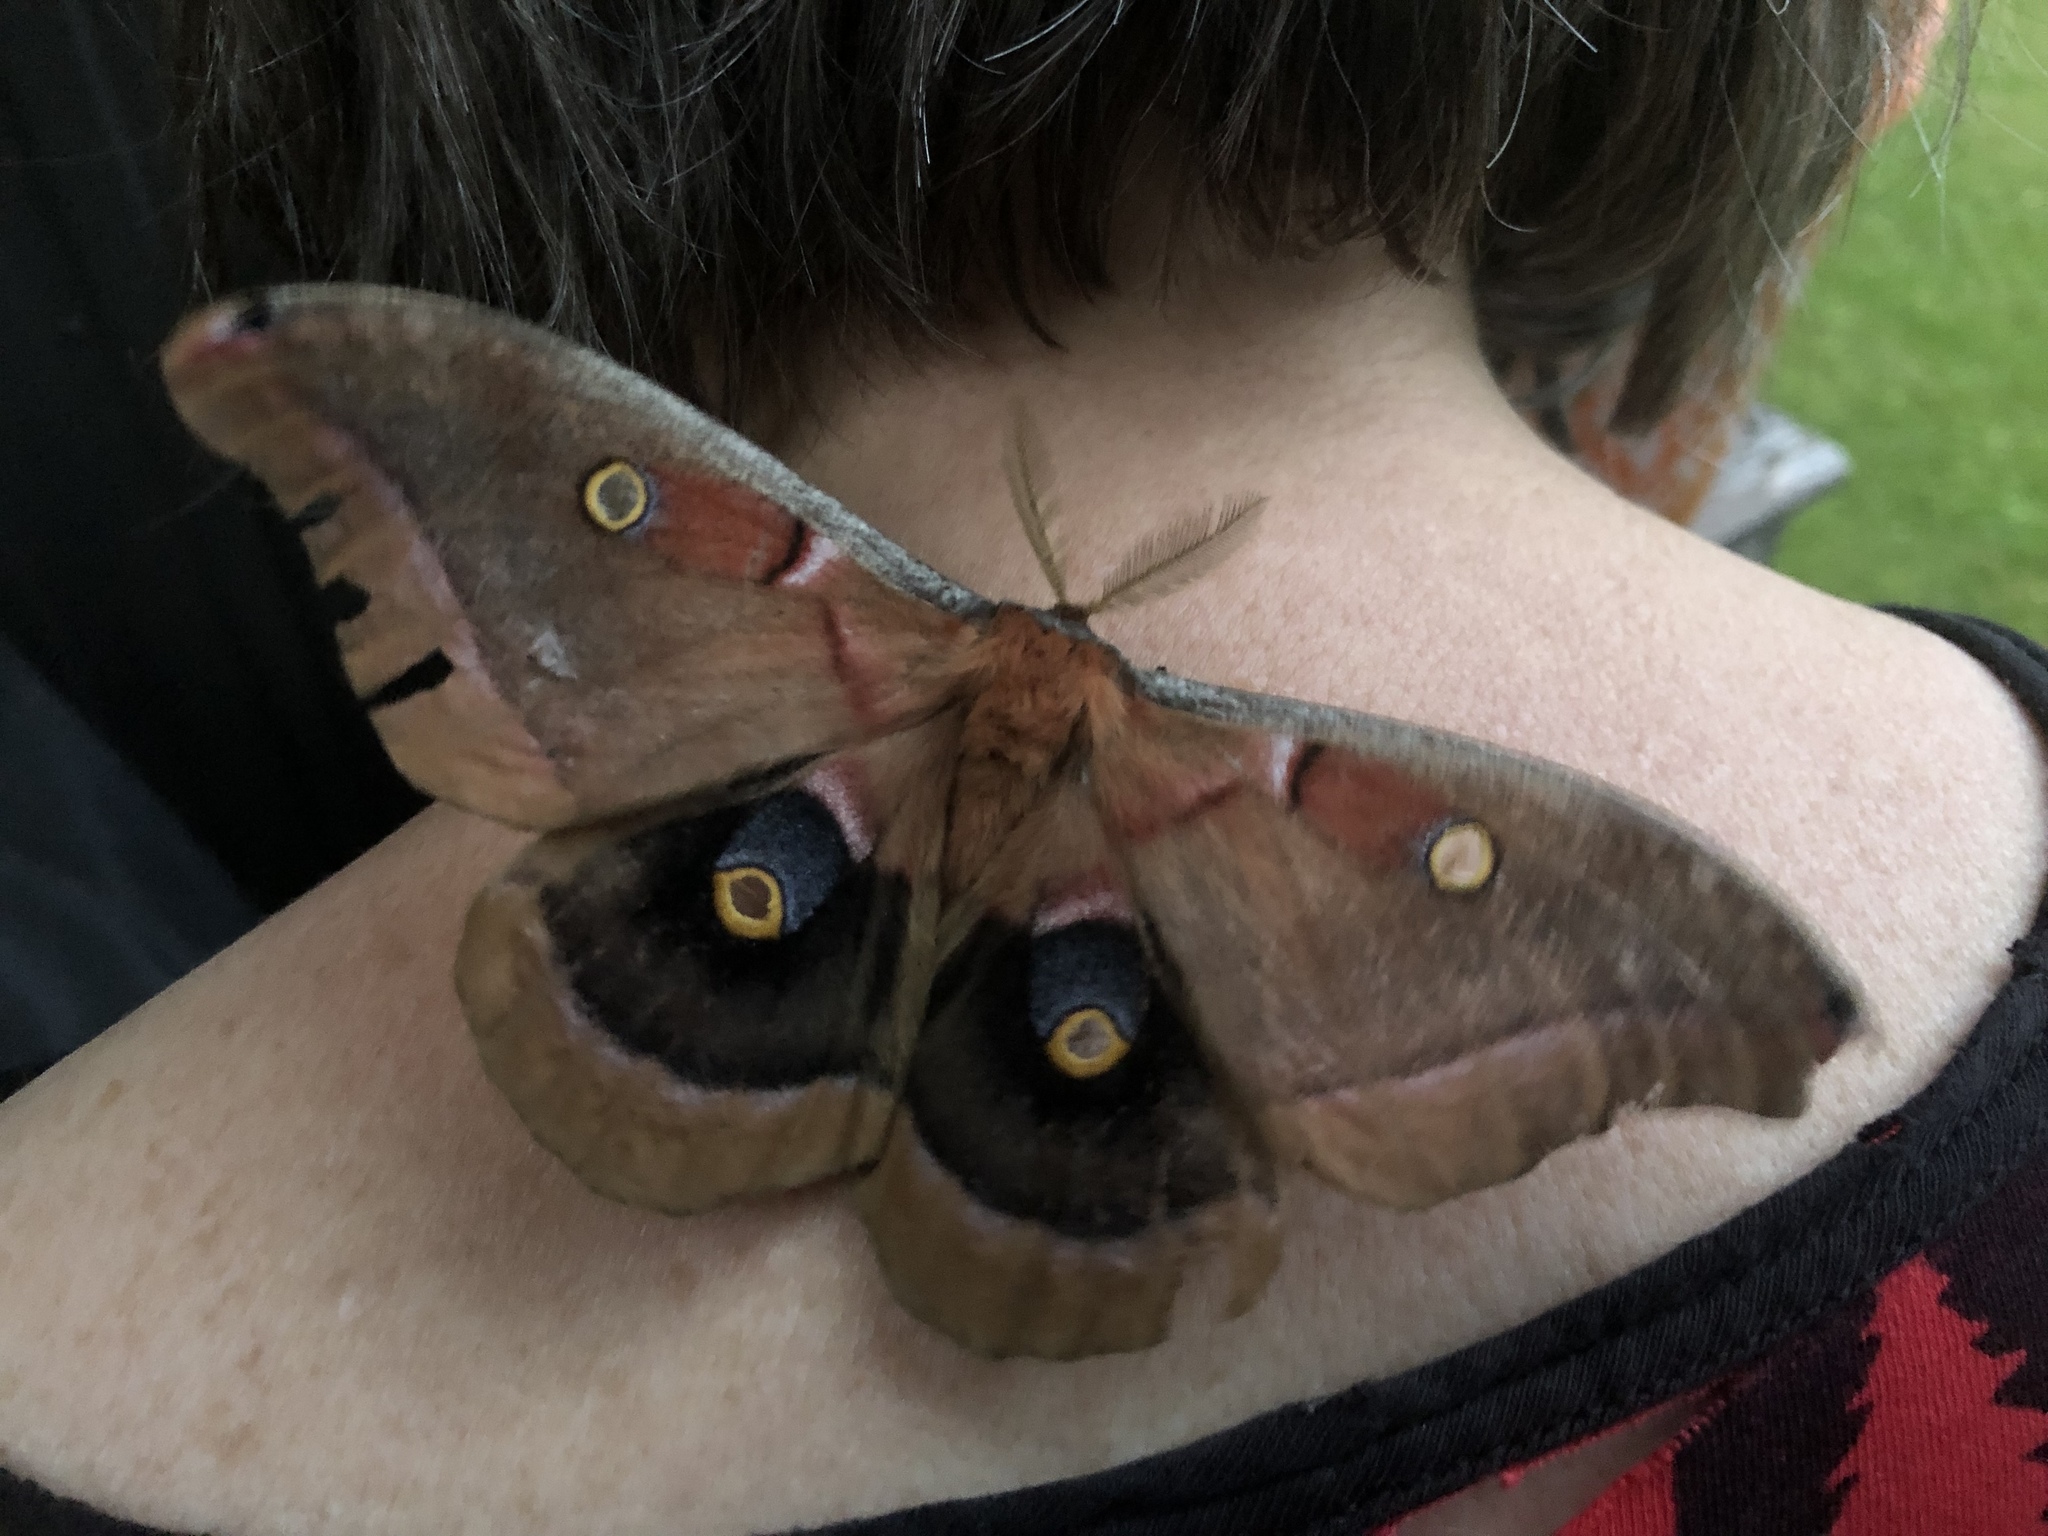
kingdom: Animalia
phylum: Arthropoda
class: Insecta
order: Lepidoptera
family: Saturniidae
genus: Antheraea
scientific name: Antheraea polyphemus
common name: Polyphemus moth
